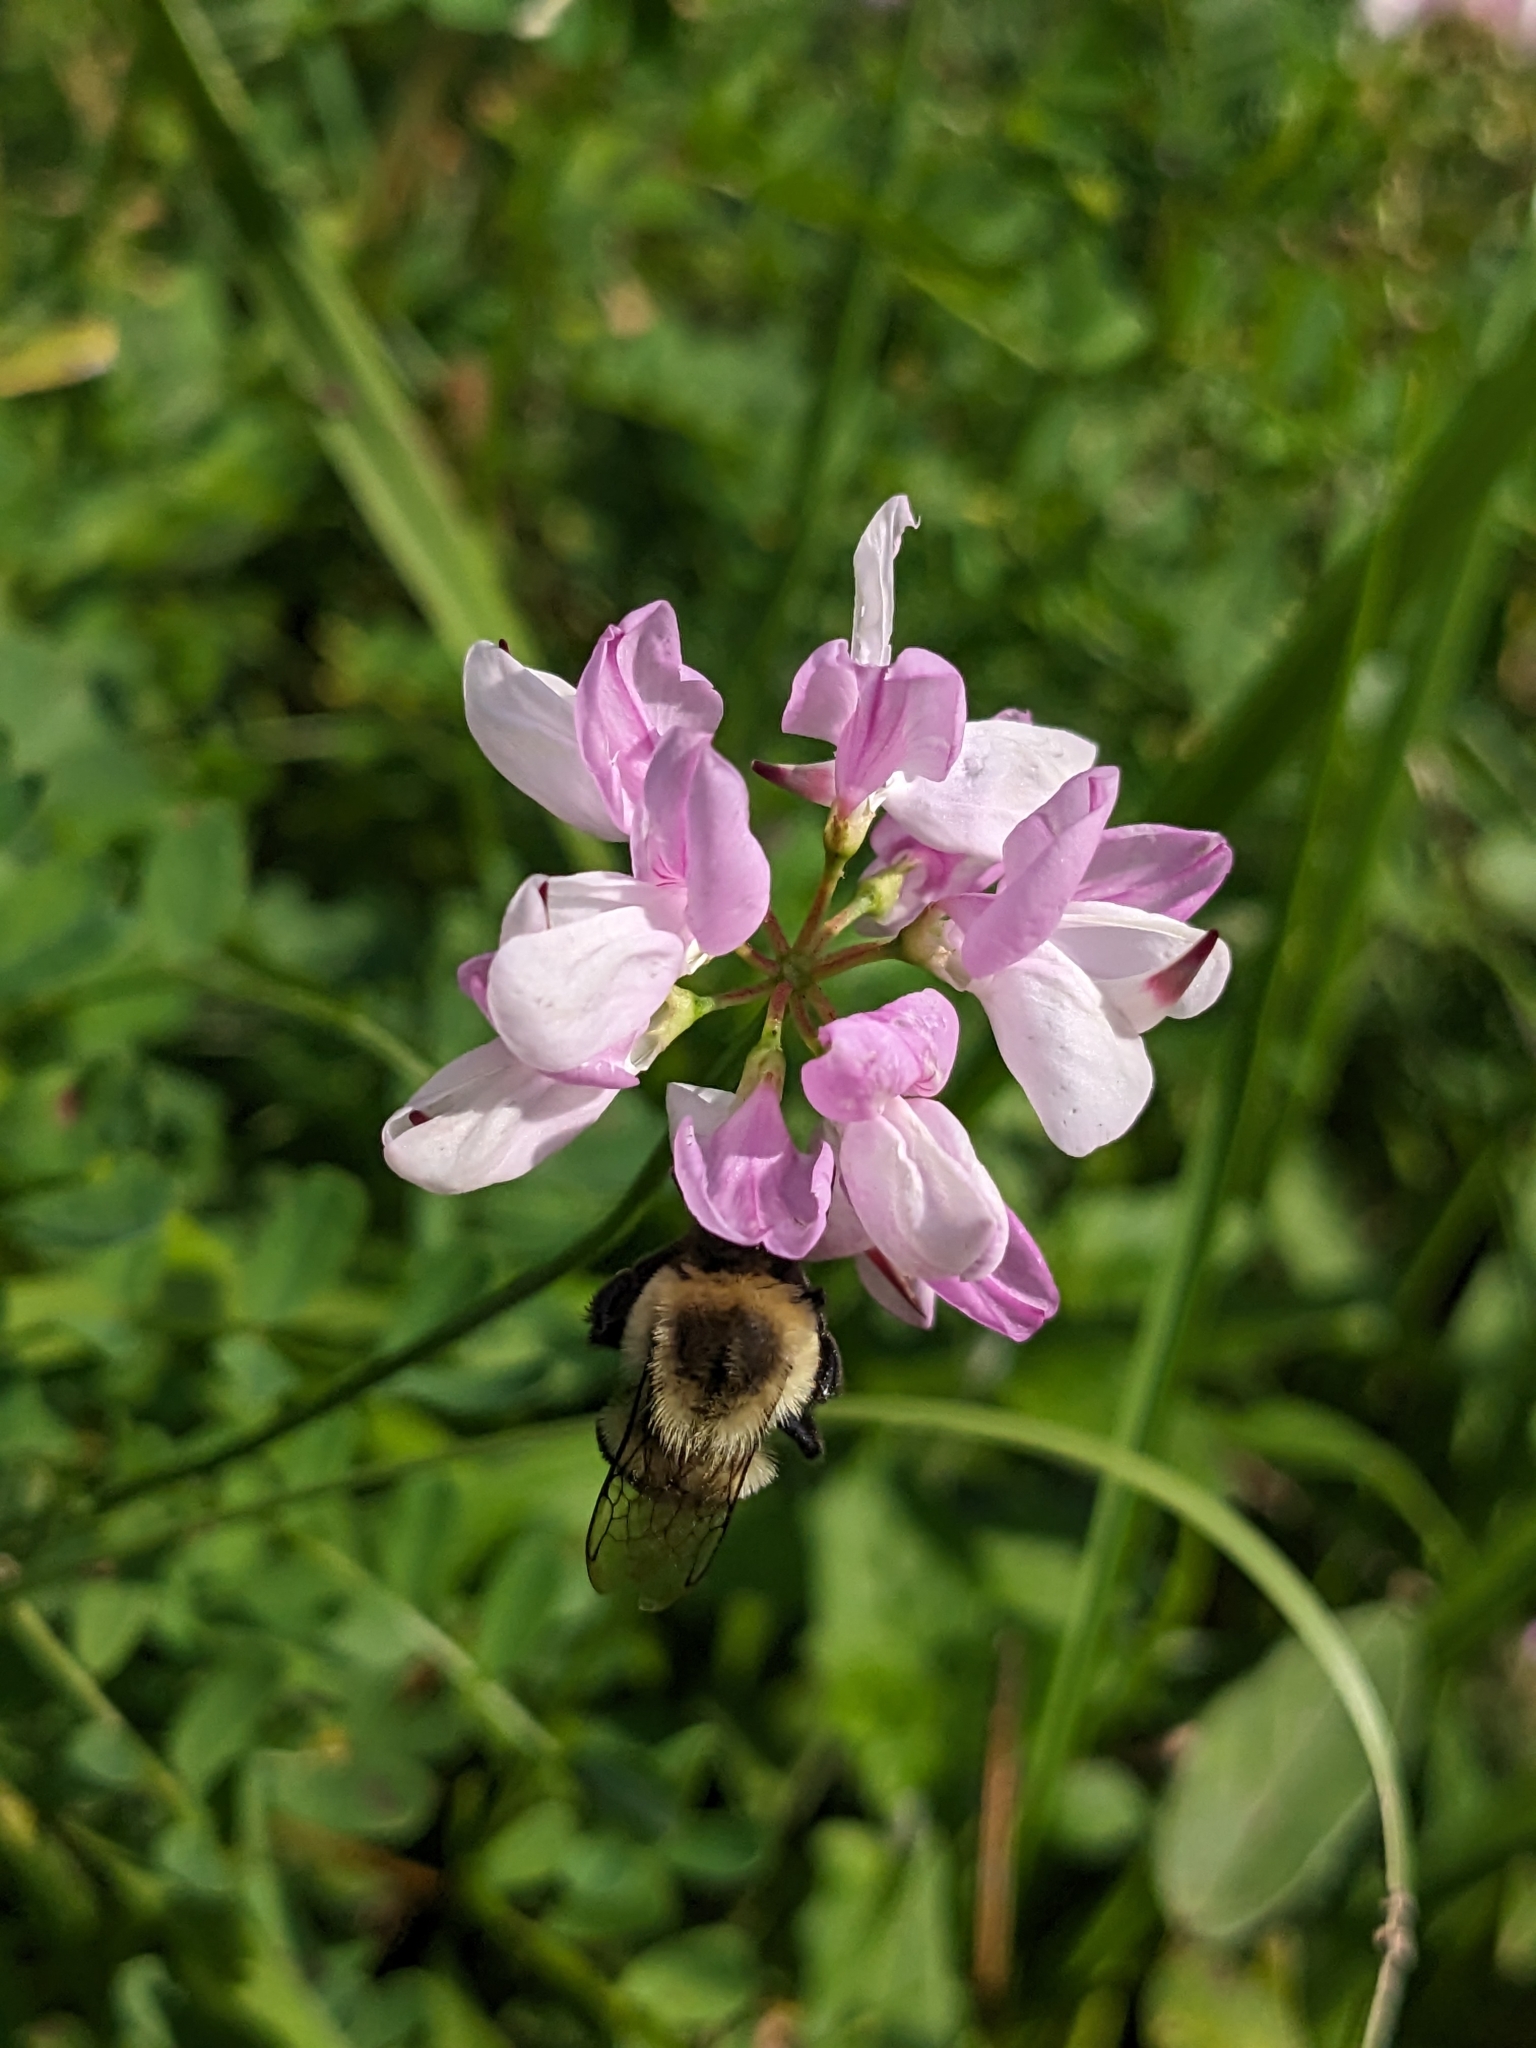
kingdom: Animalia
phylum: Arthropoda
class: Insecta
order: Hymenoptera
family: Apidae
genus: Bombus
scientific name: Bombus impatiens
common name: Common eastern bumble bee
